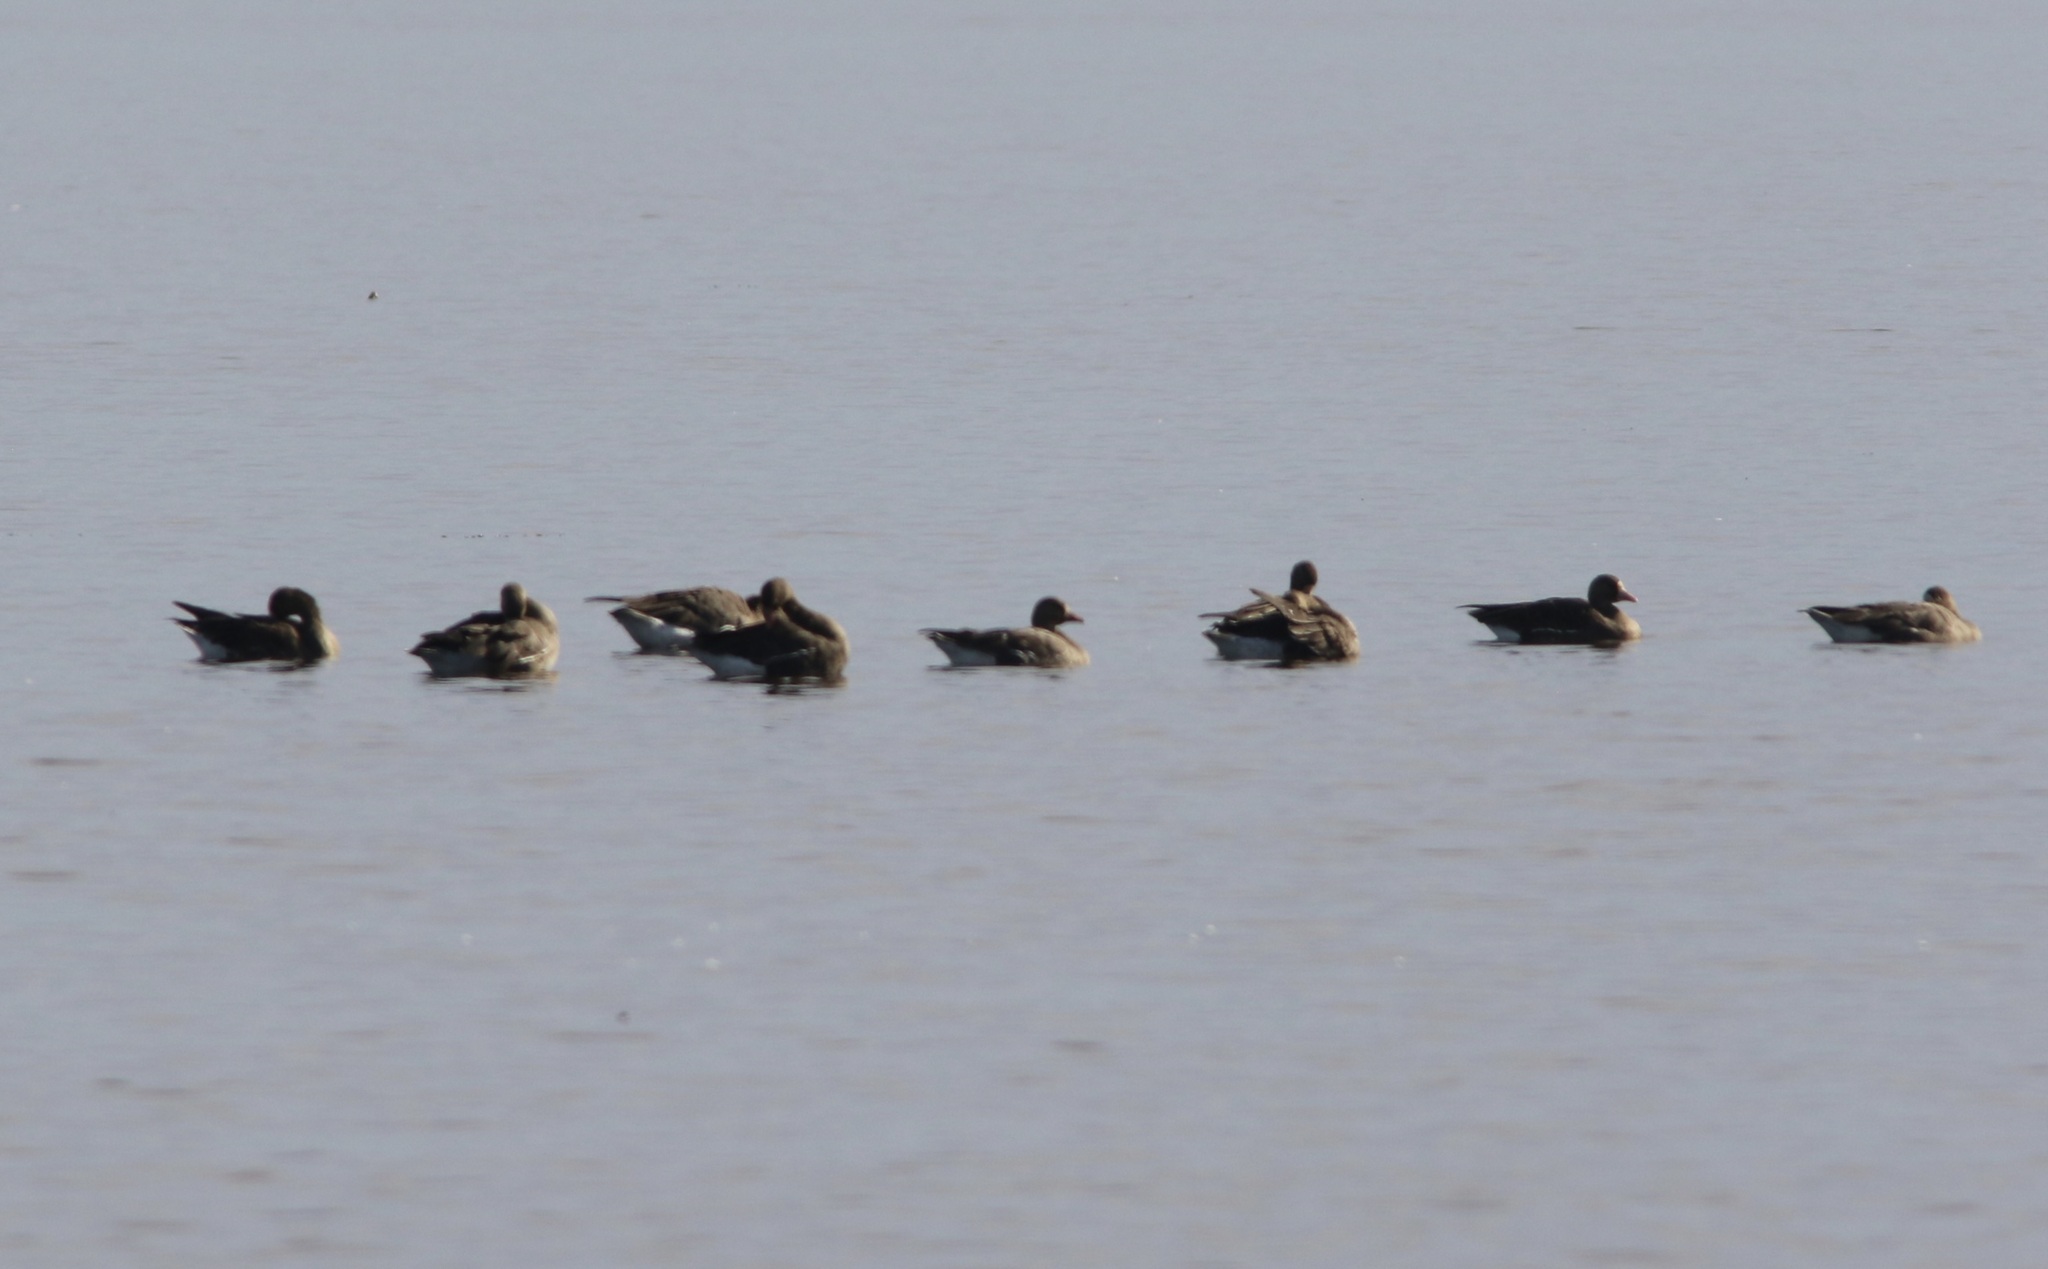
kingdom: Animalia
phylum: Chordata
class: Aves
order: Anseriformes
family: Anatidae
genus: Anser
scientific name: Anser albifrons
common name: Greater white-fronted goose
